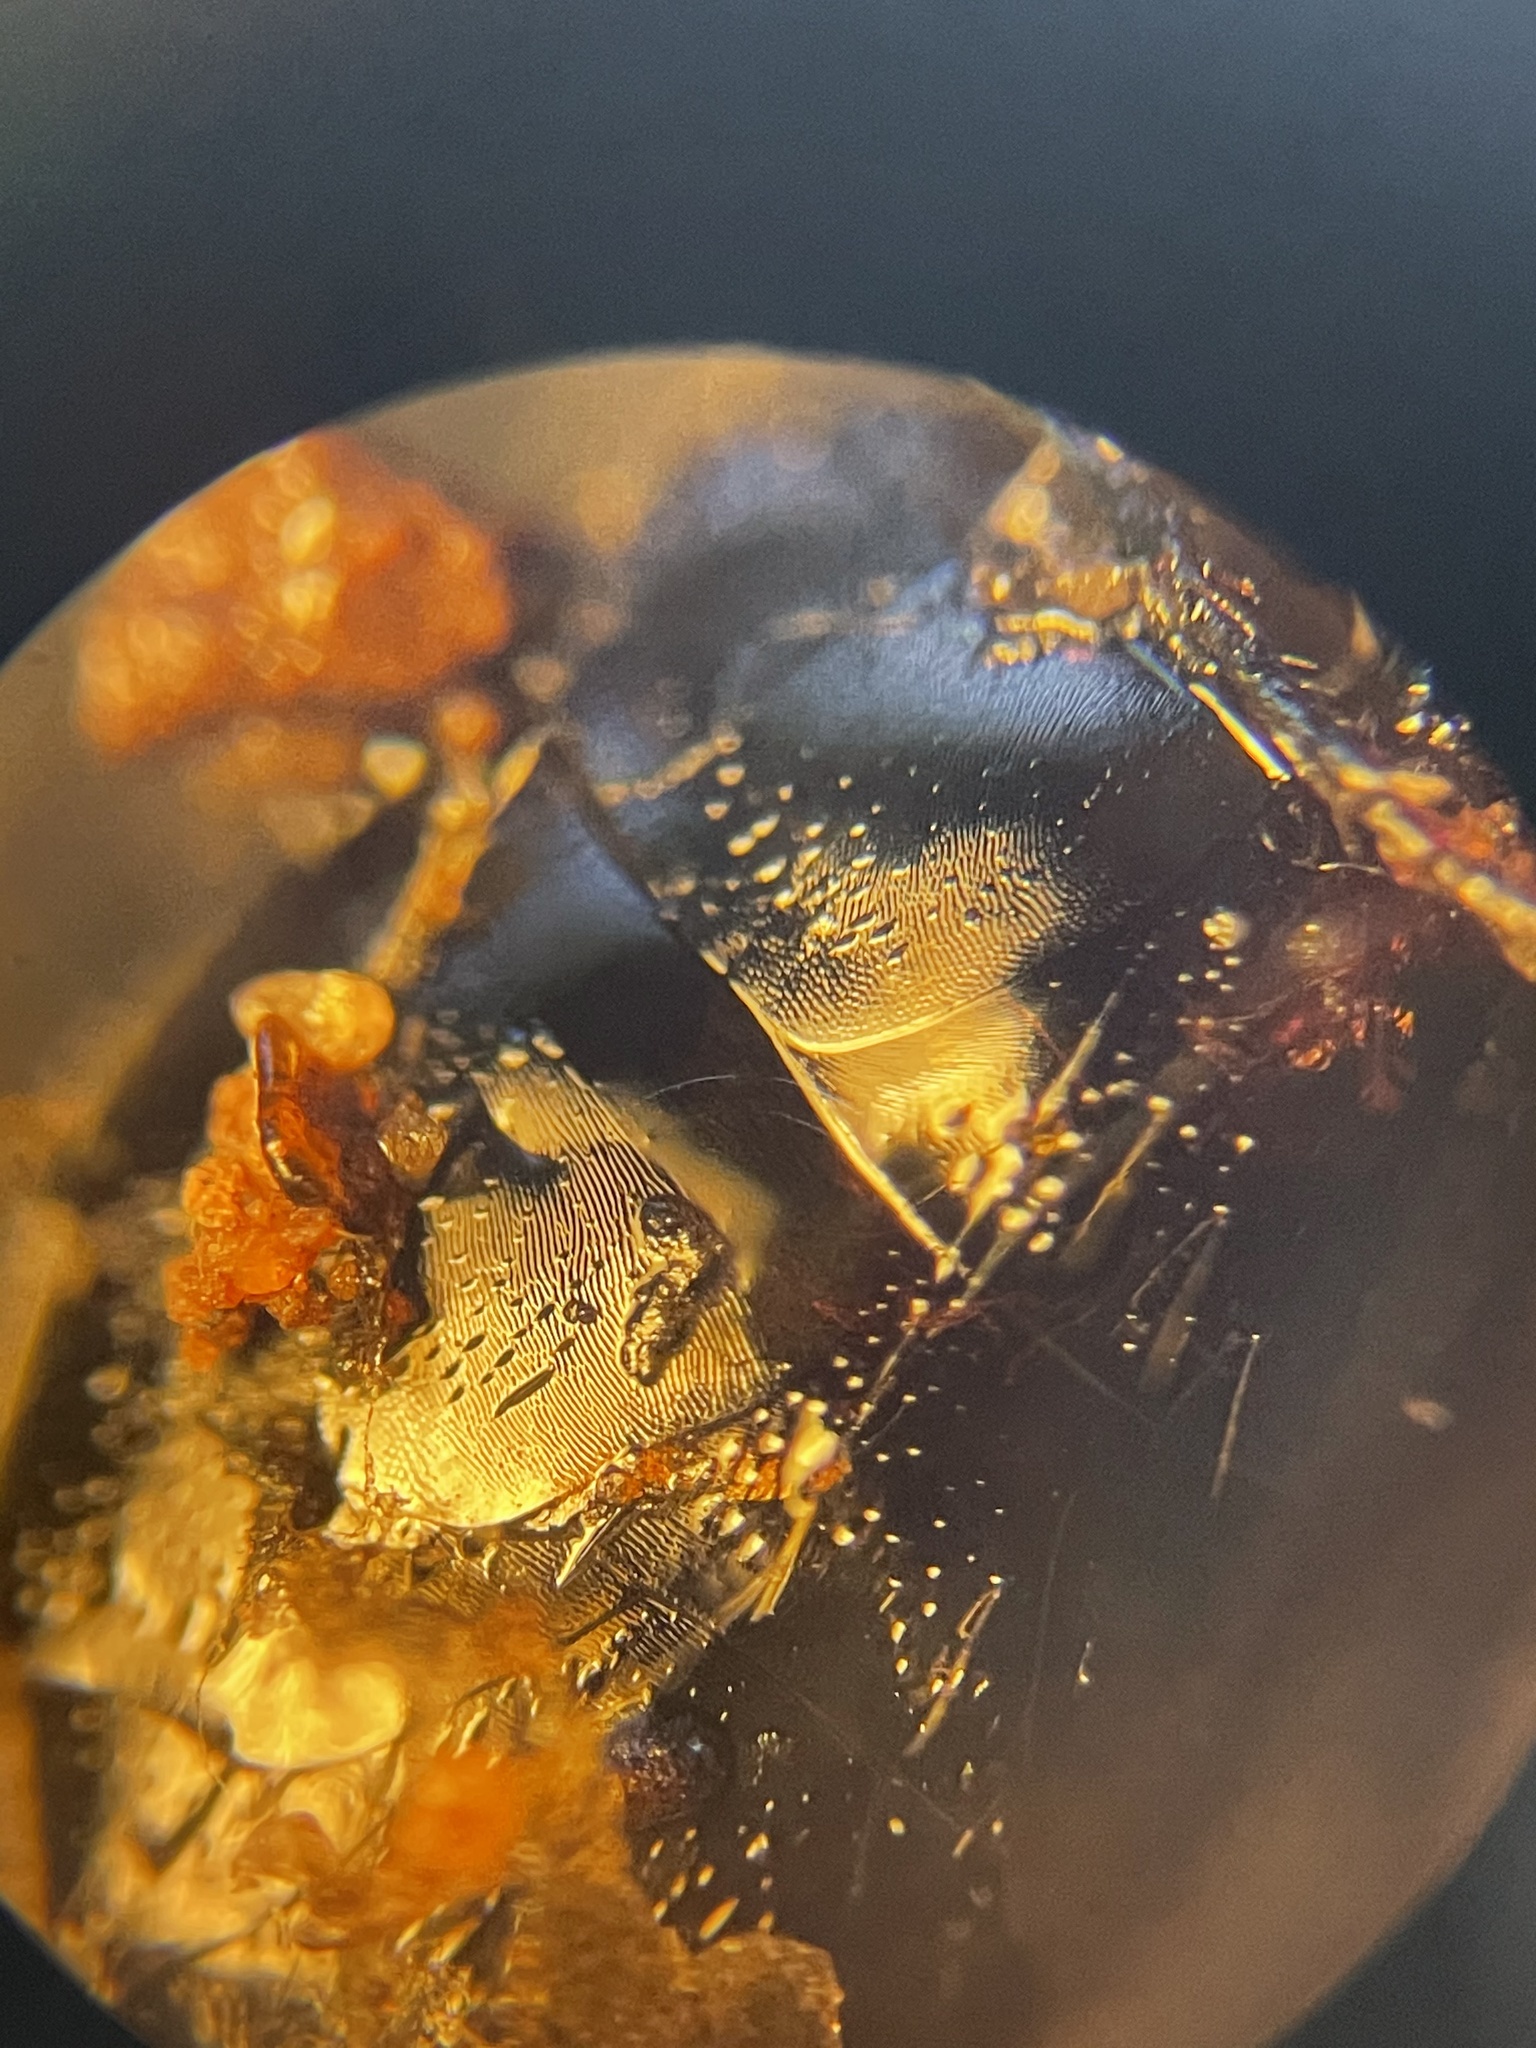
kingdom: Animalia
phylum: Arthropoda
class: Insecta
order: Hymenoptera
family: Formicidae
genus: Camponotus
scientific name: Camponotus texanus
